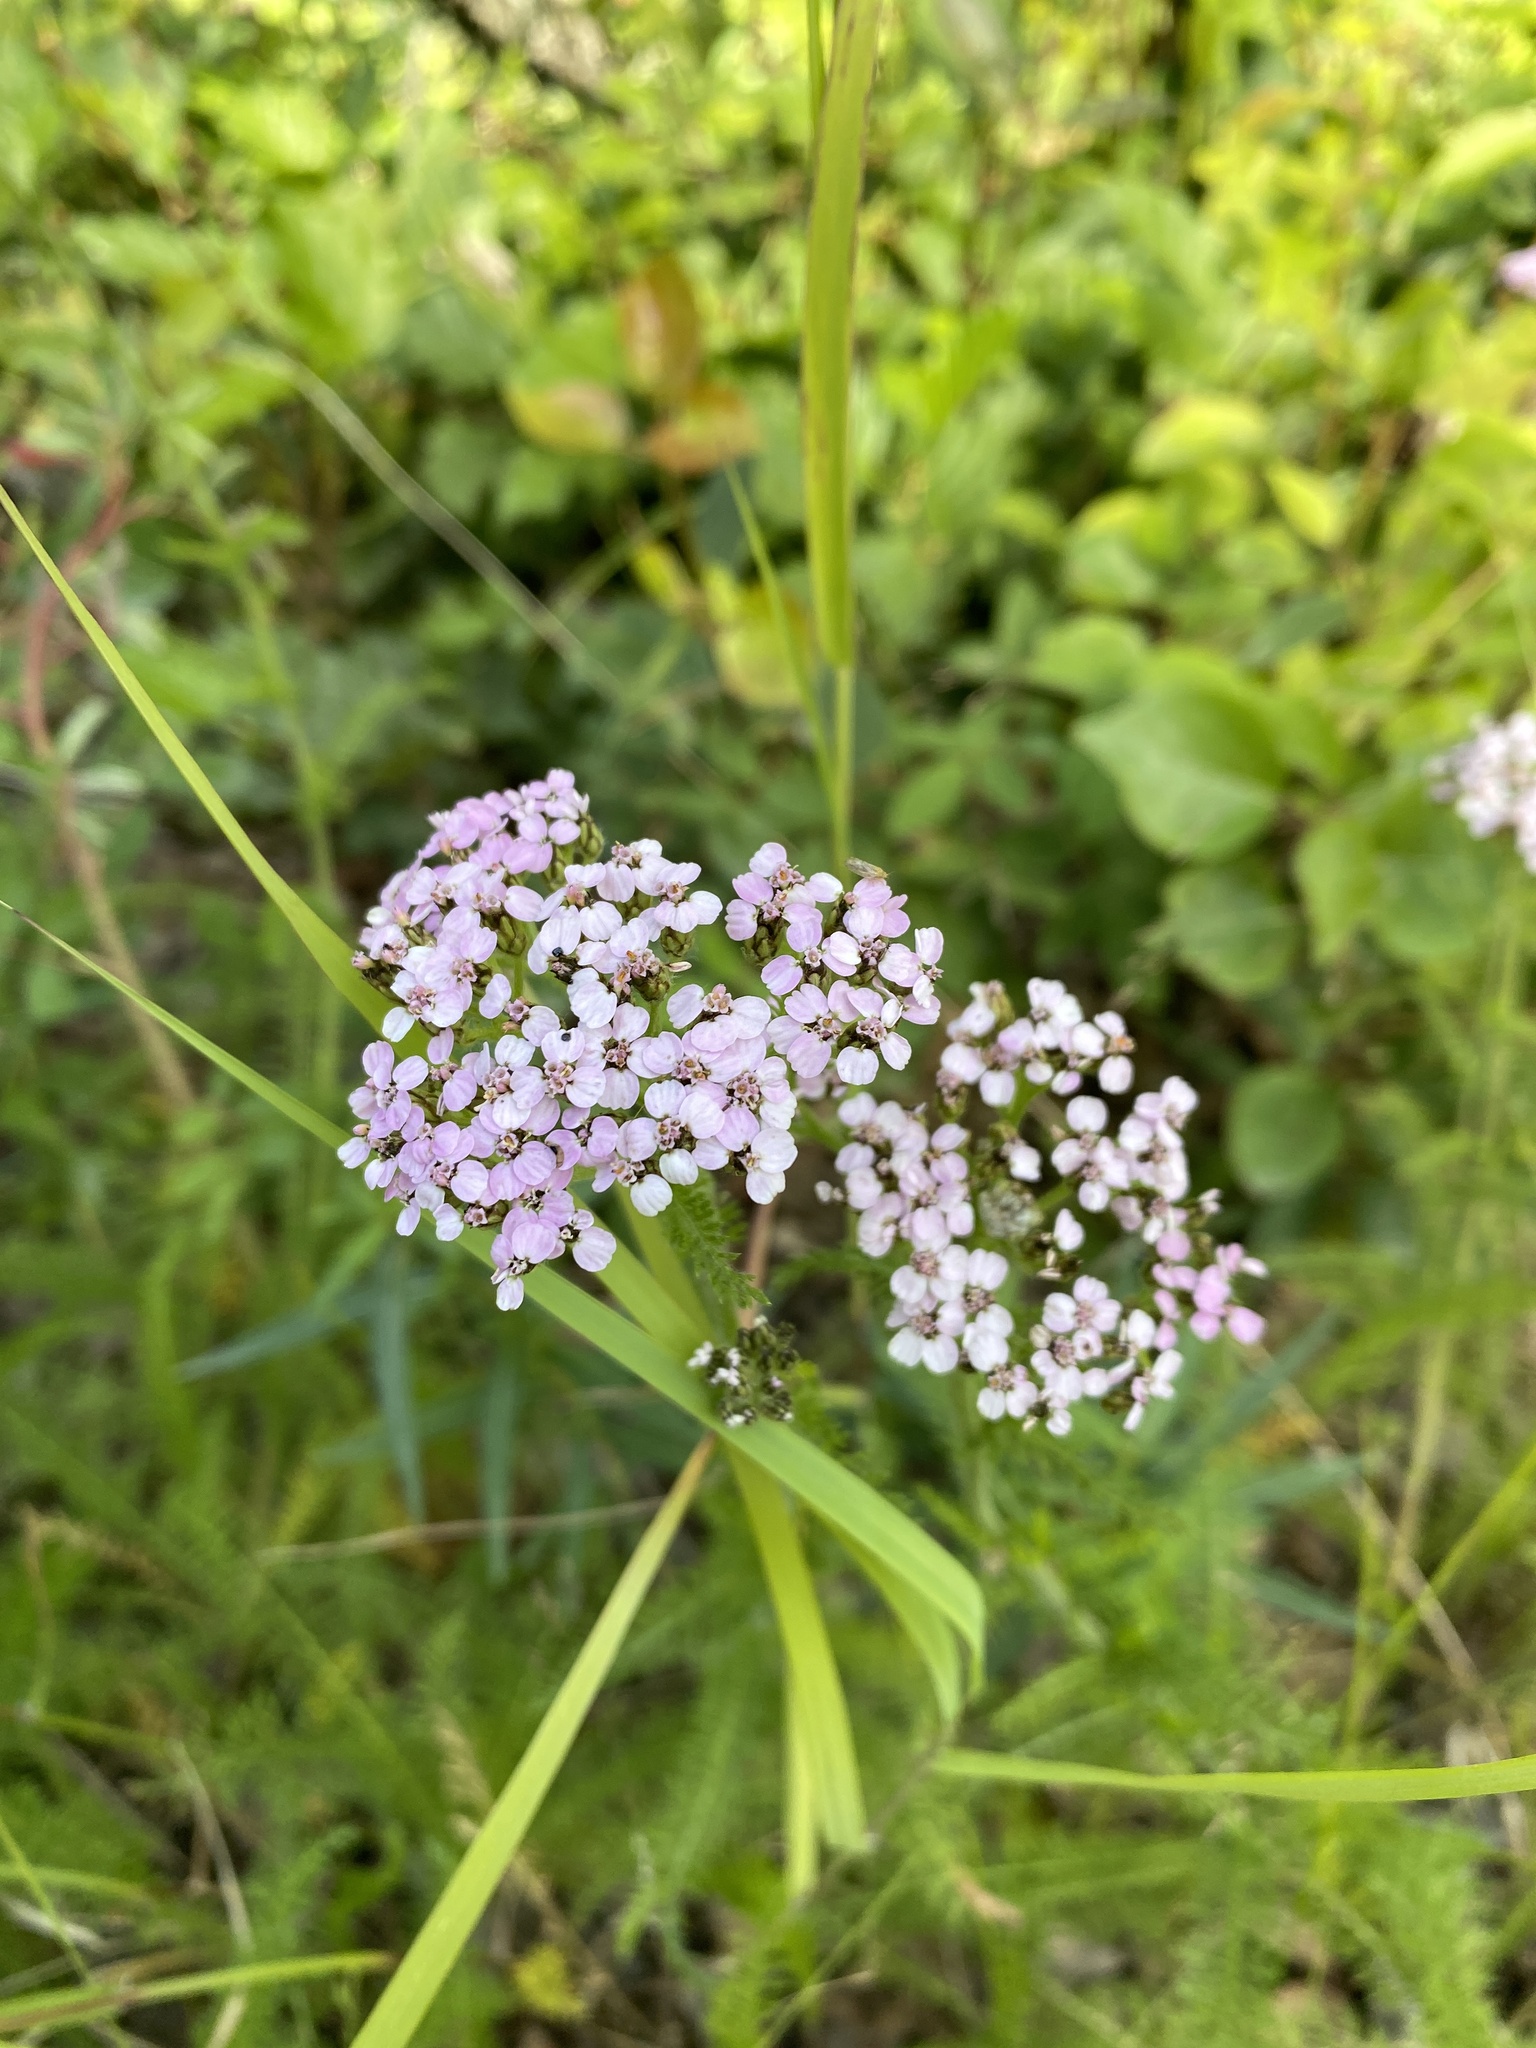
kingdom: Plantae
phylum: Tracheophyta
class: Magnoliopsida
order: Asterales
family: Asteraceae
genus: Achillea
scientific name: Achillea millefolium
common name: Yarrow
